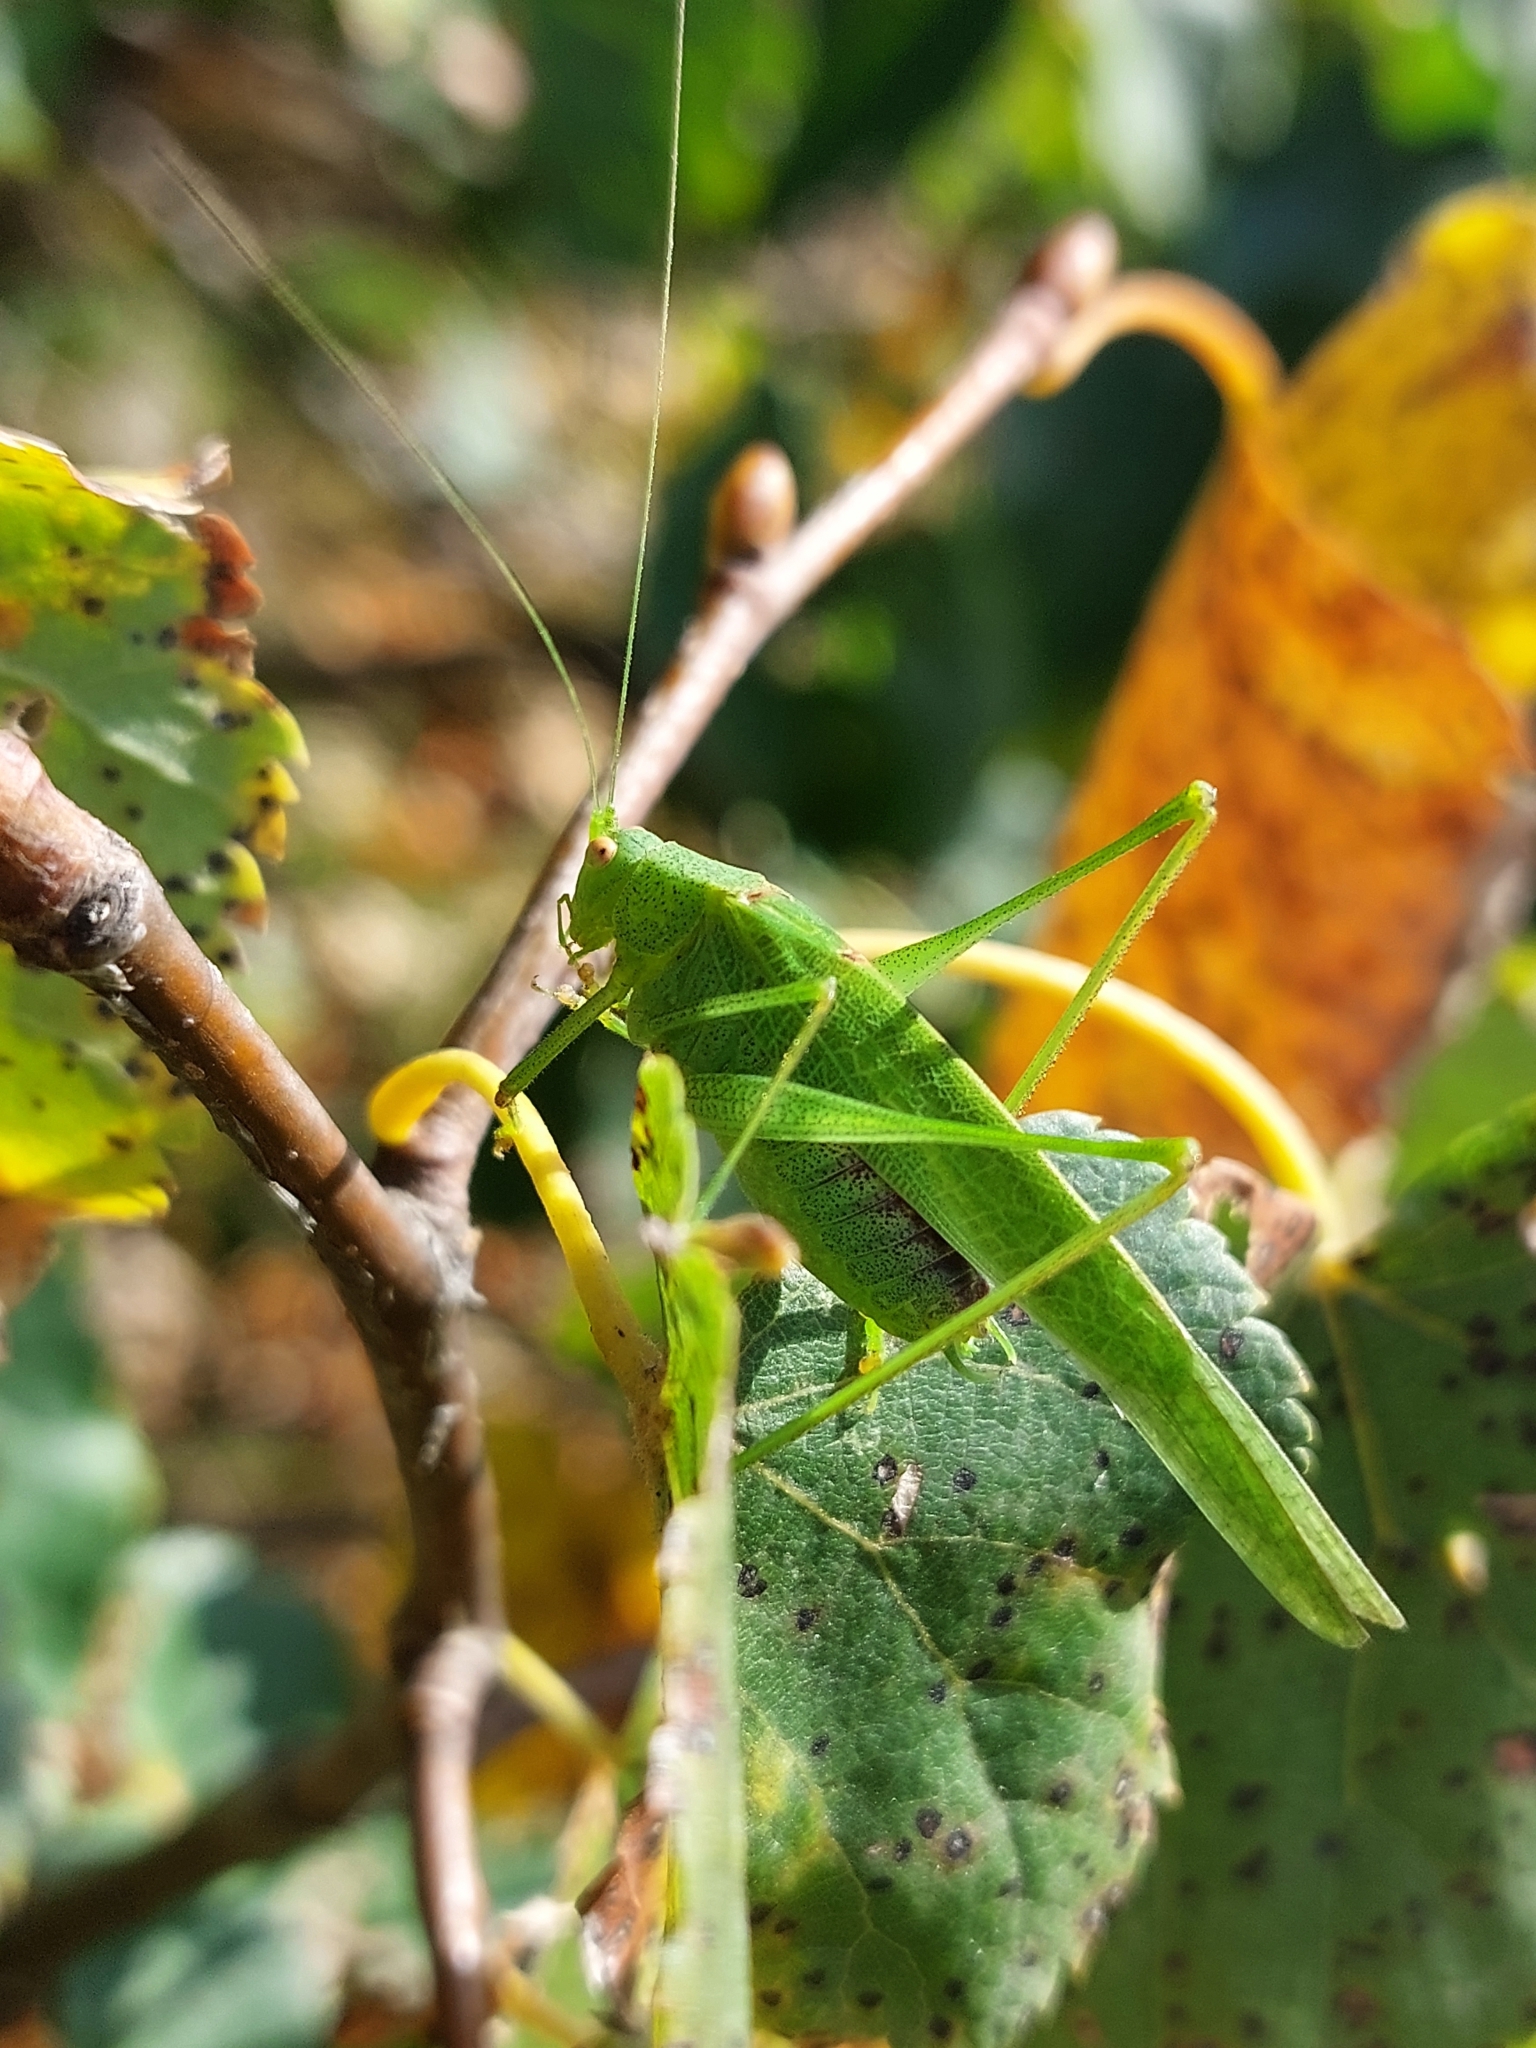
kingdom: Animalia
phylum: Arthropoda
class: Insecta
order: Orthoptera
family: Tettigoniidae
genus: Phaneroptera
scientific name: Phaneroptera nana
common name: Southern sickle bush-cricket
